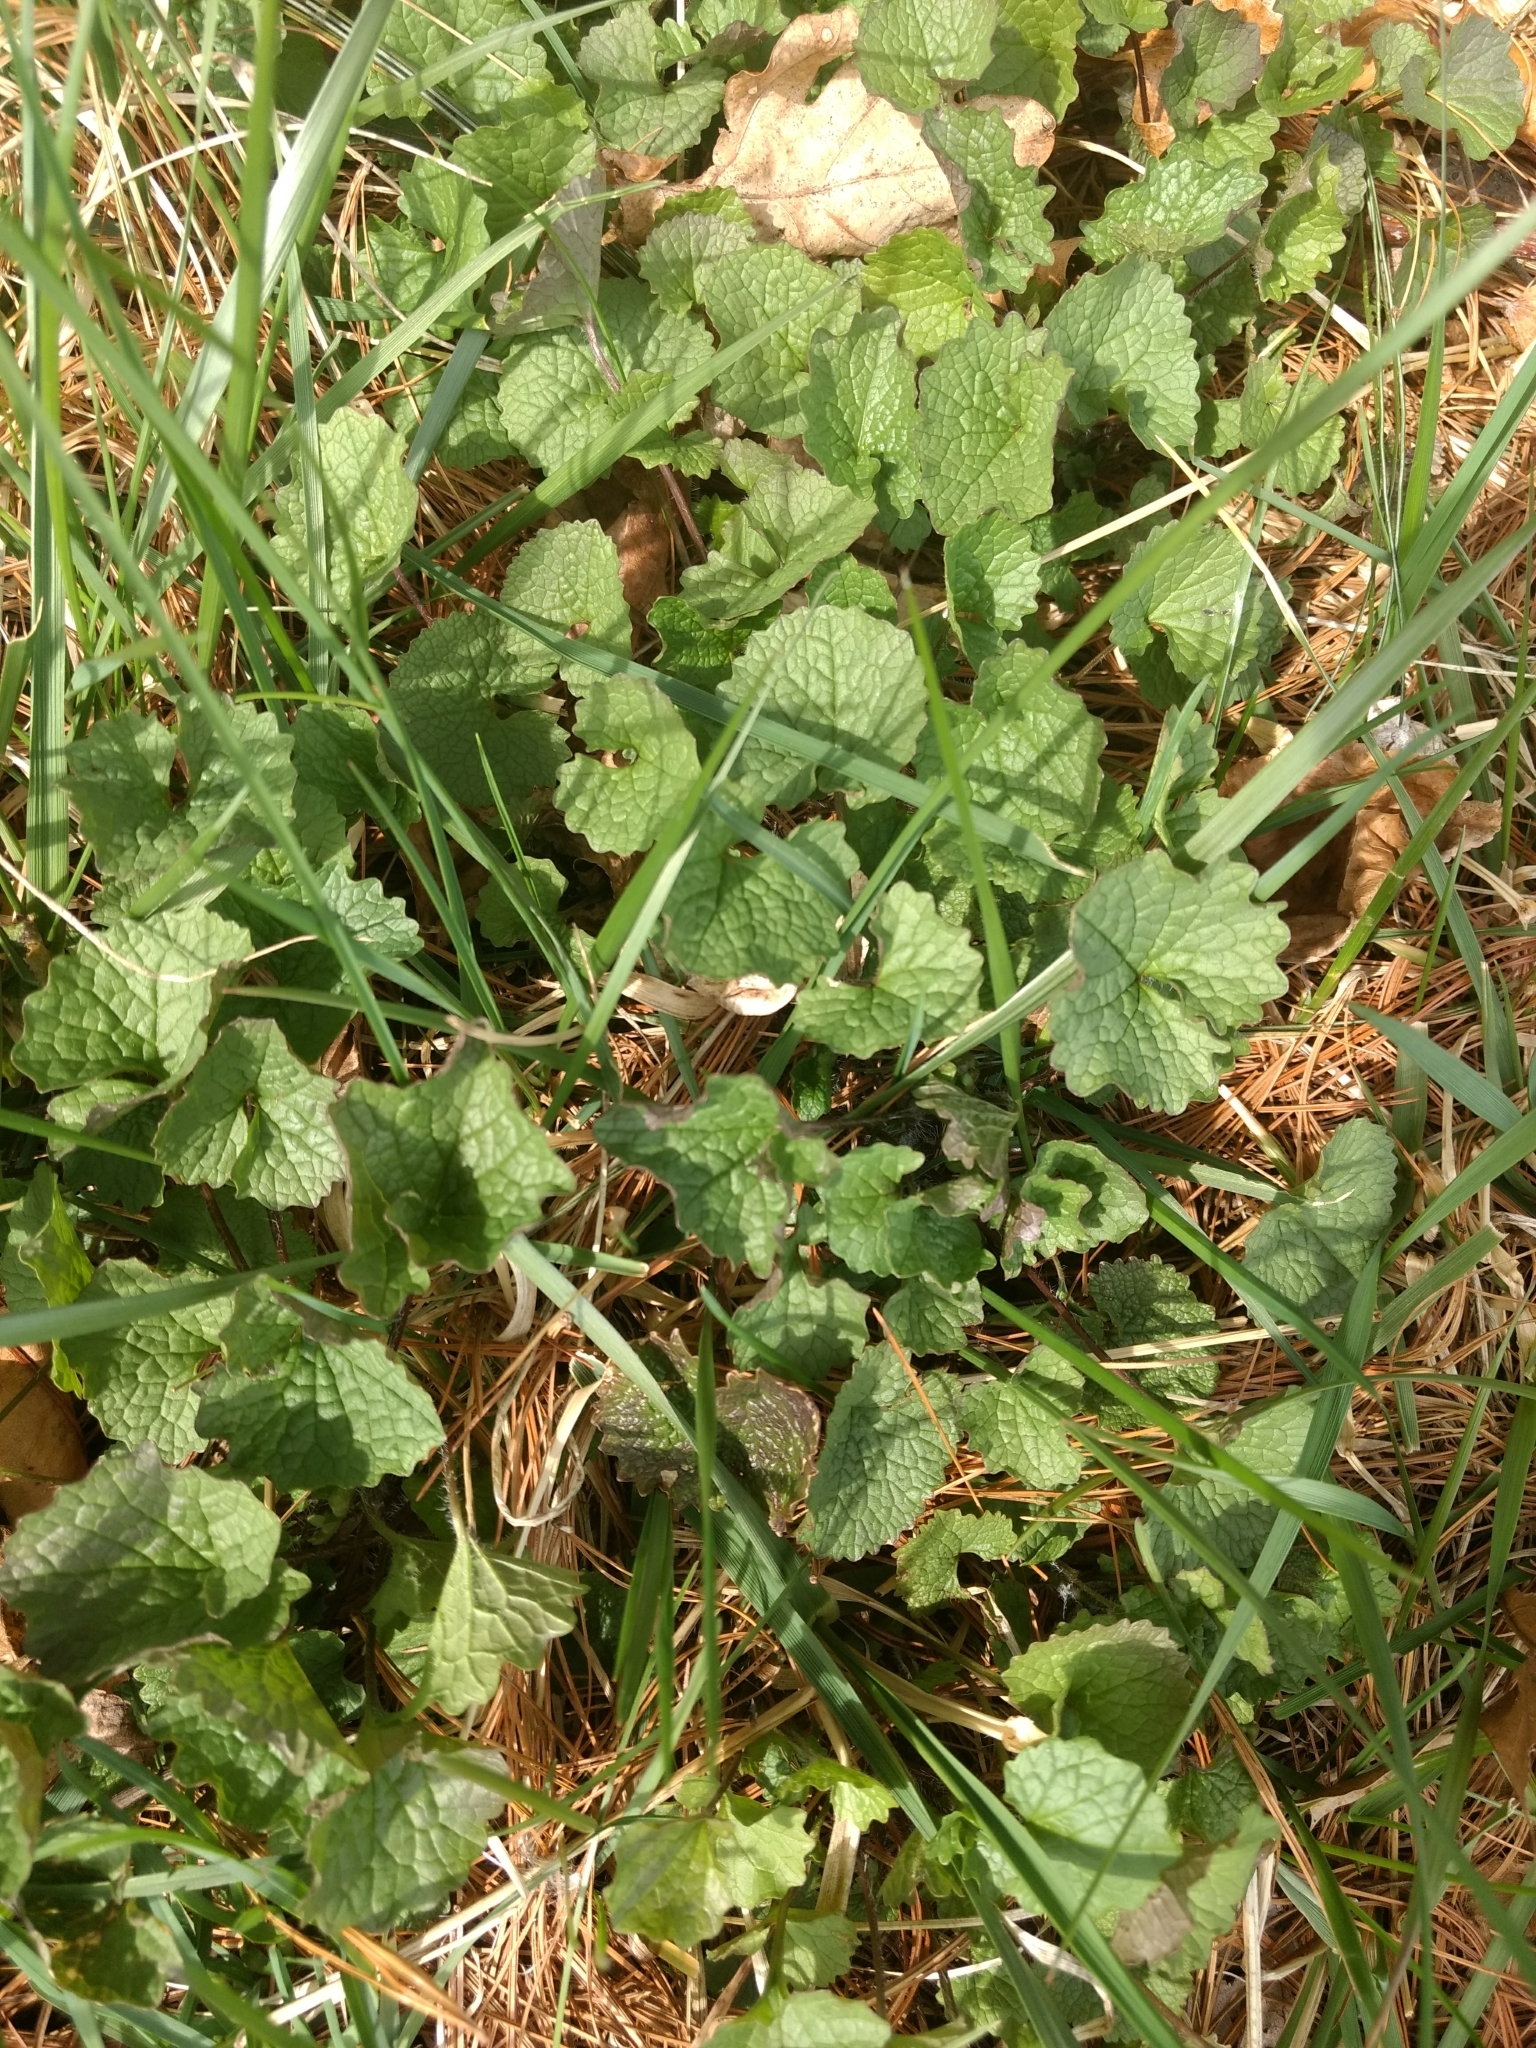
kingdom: Plantae
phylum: Tracheophyta
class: Magnoliopsida
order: Brassicales
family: Brassicaceae
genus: Alliaria
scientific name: Alliaria petiolata
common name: Garlic mustard
